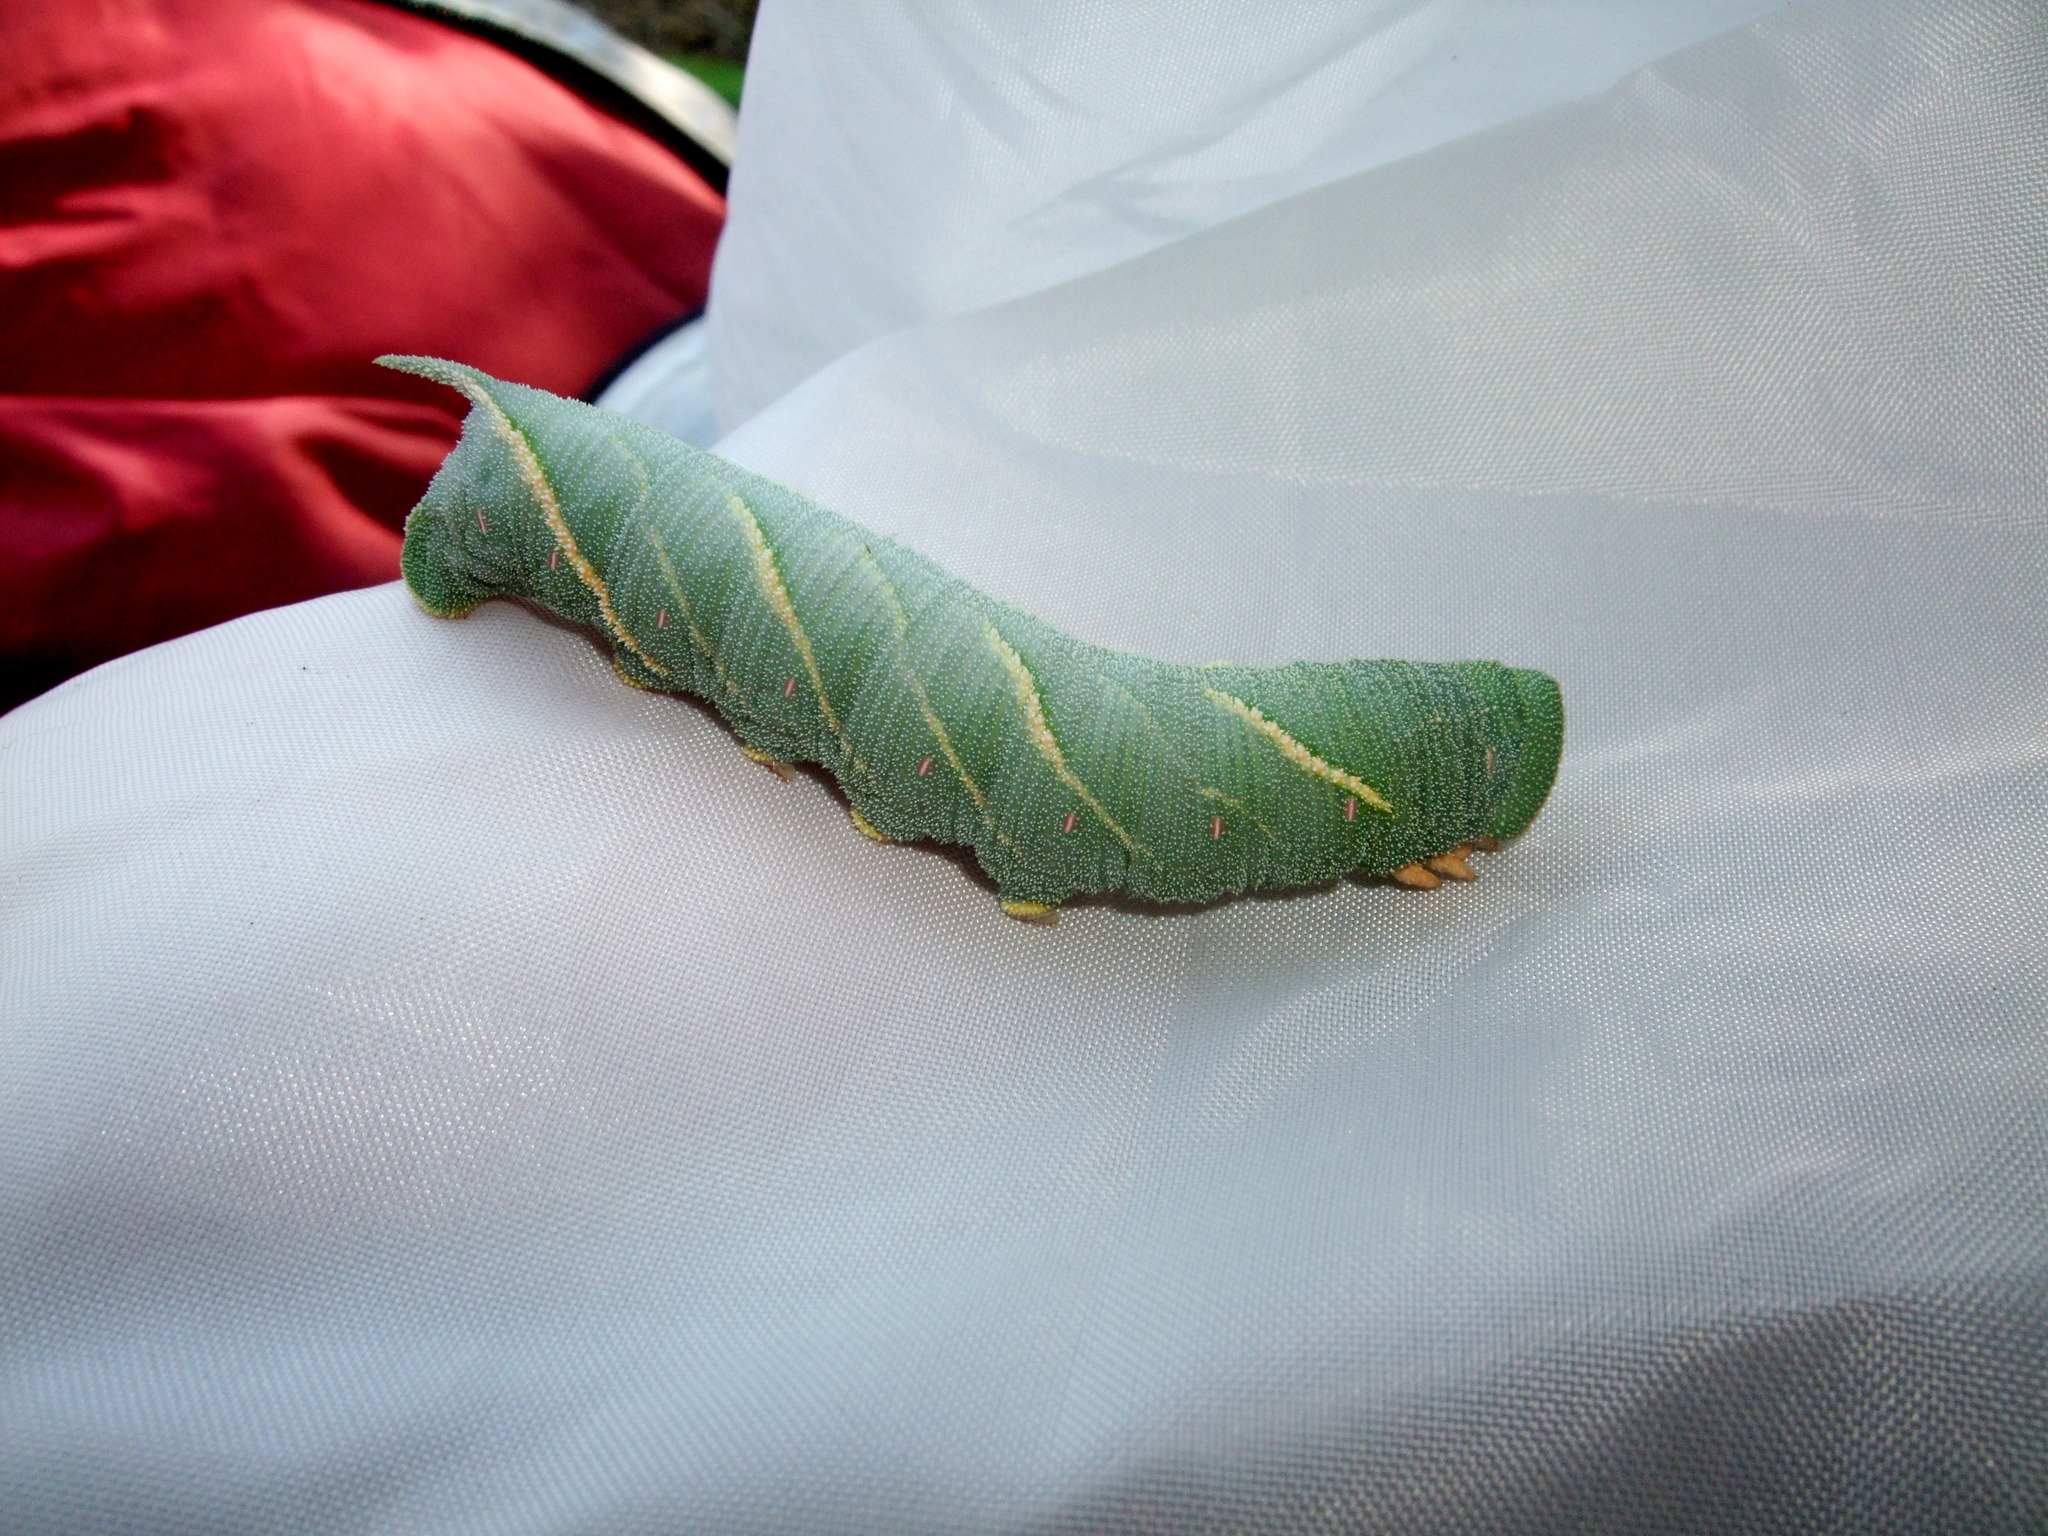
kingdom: Animalia
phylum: Arthropoda
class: Insecta
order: Lepidoptera
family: Sphingidae
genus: Marumba
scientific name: Marumba
